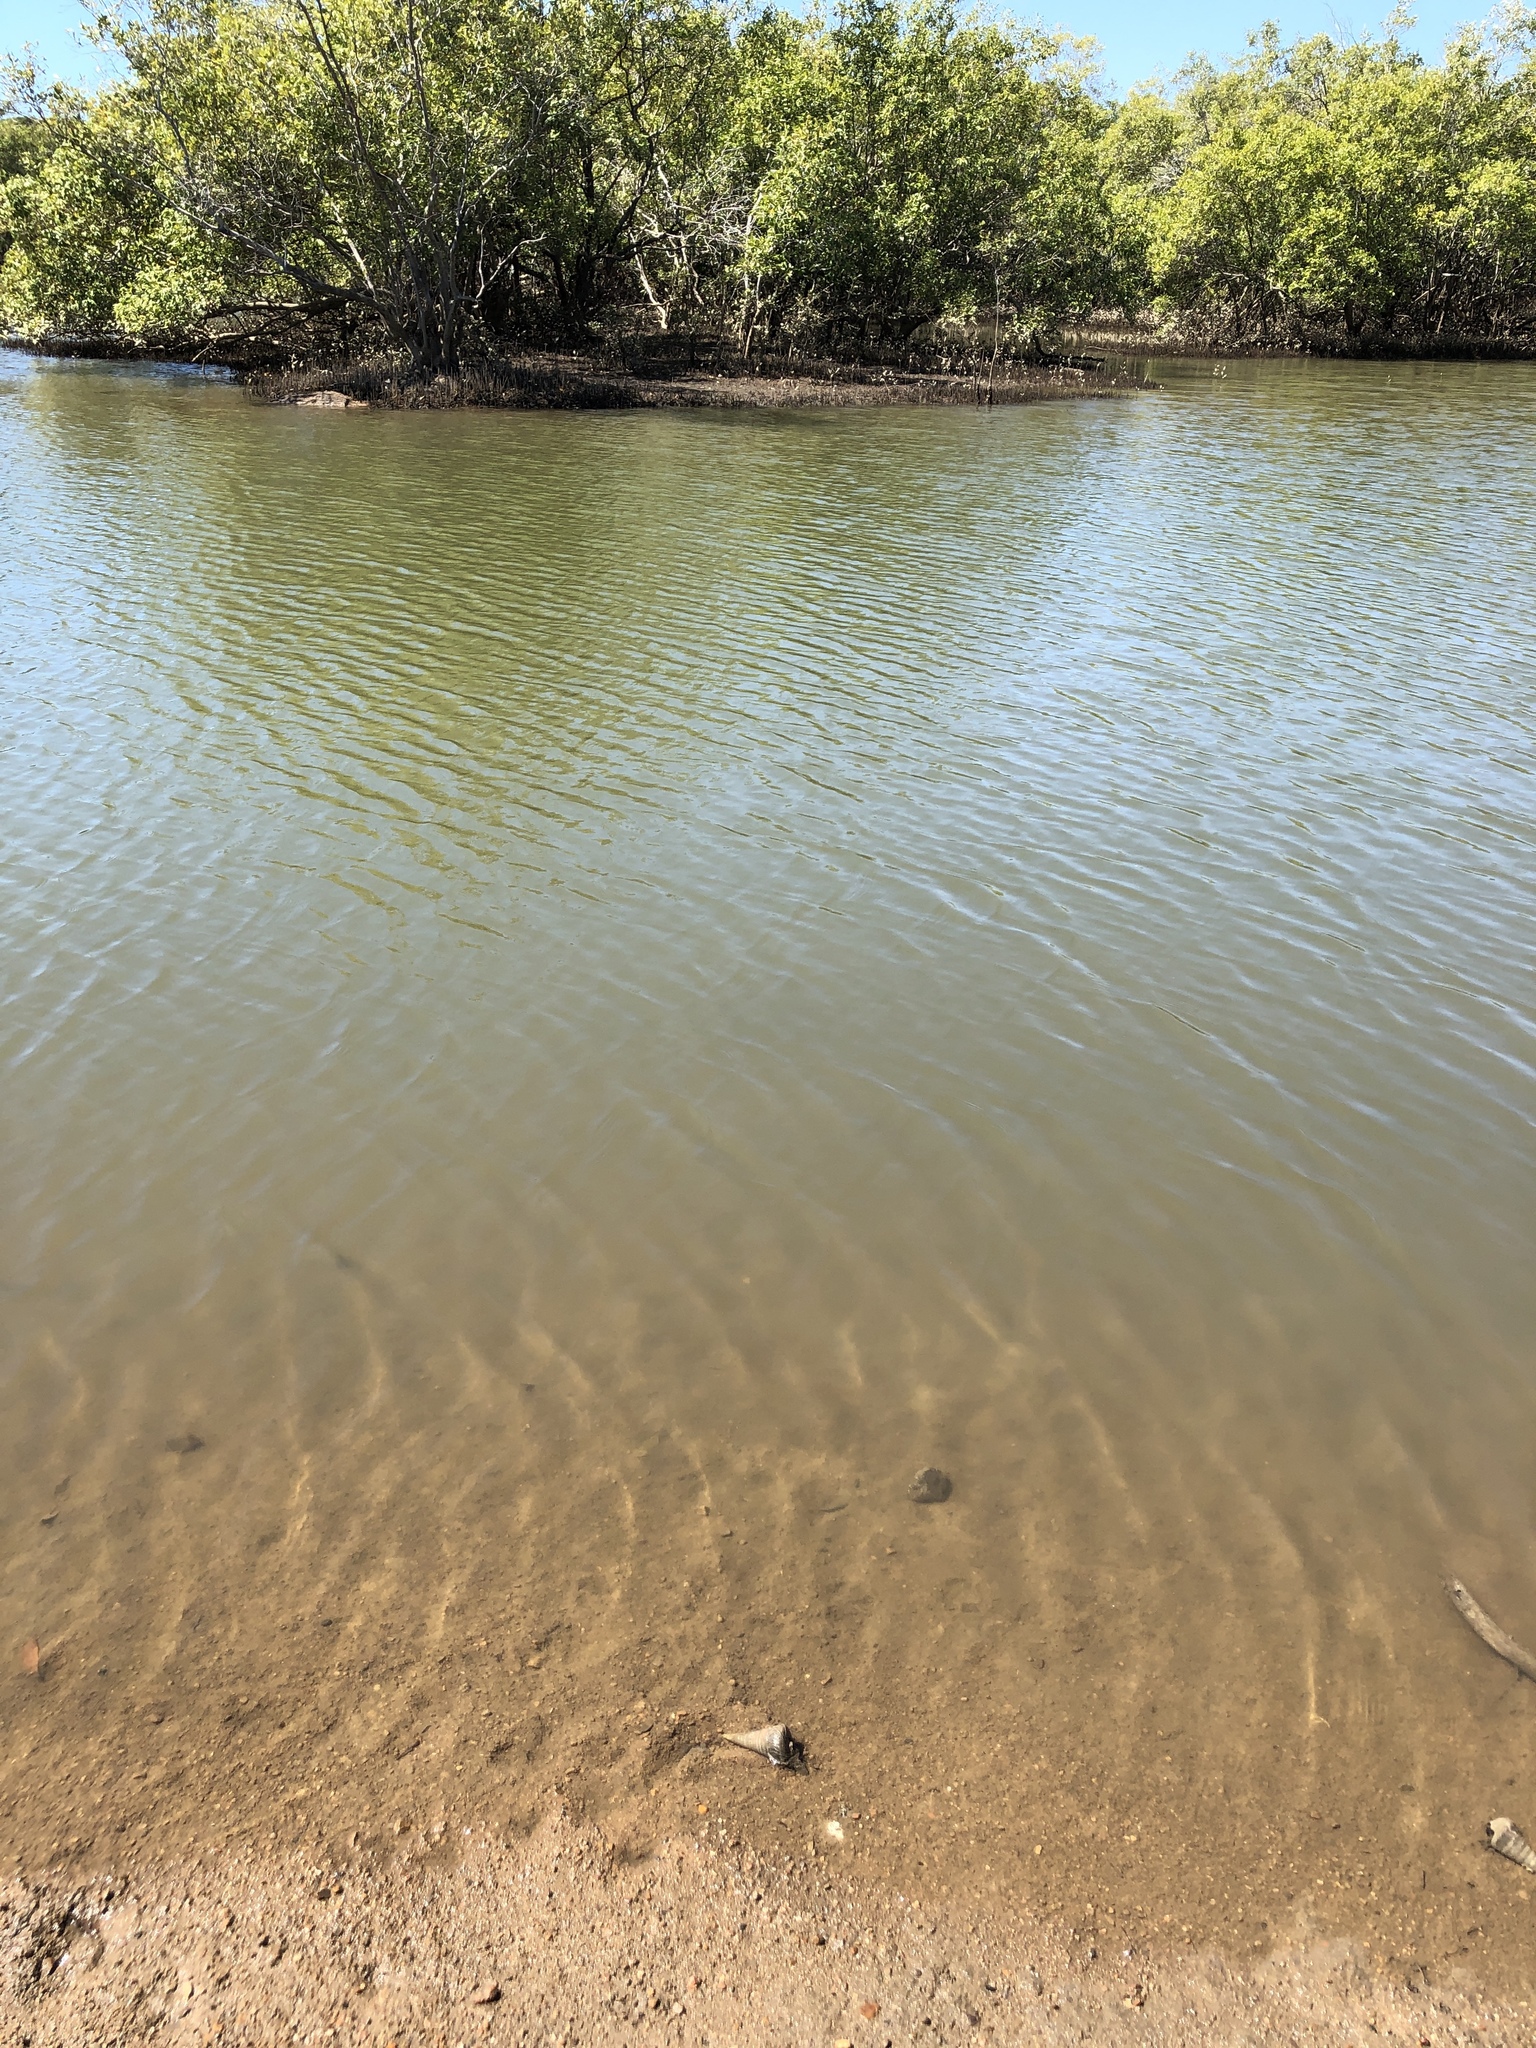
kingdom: Animalia
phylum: Mollusca
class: Gastropoda
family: Potamididae
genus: Telescopium
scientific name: Telescopium telescopium
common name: Telescope creeper
